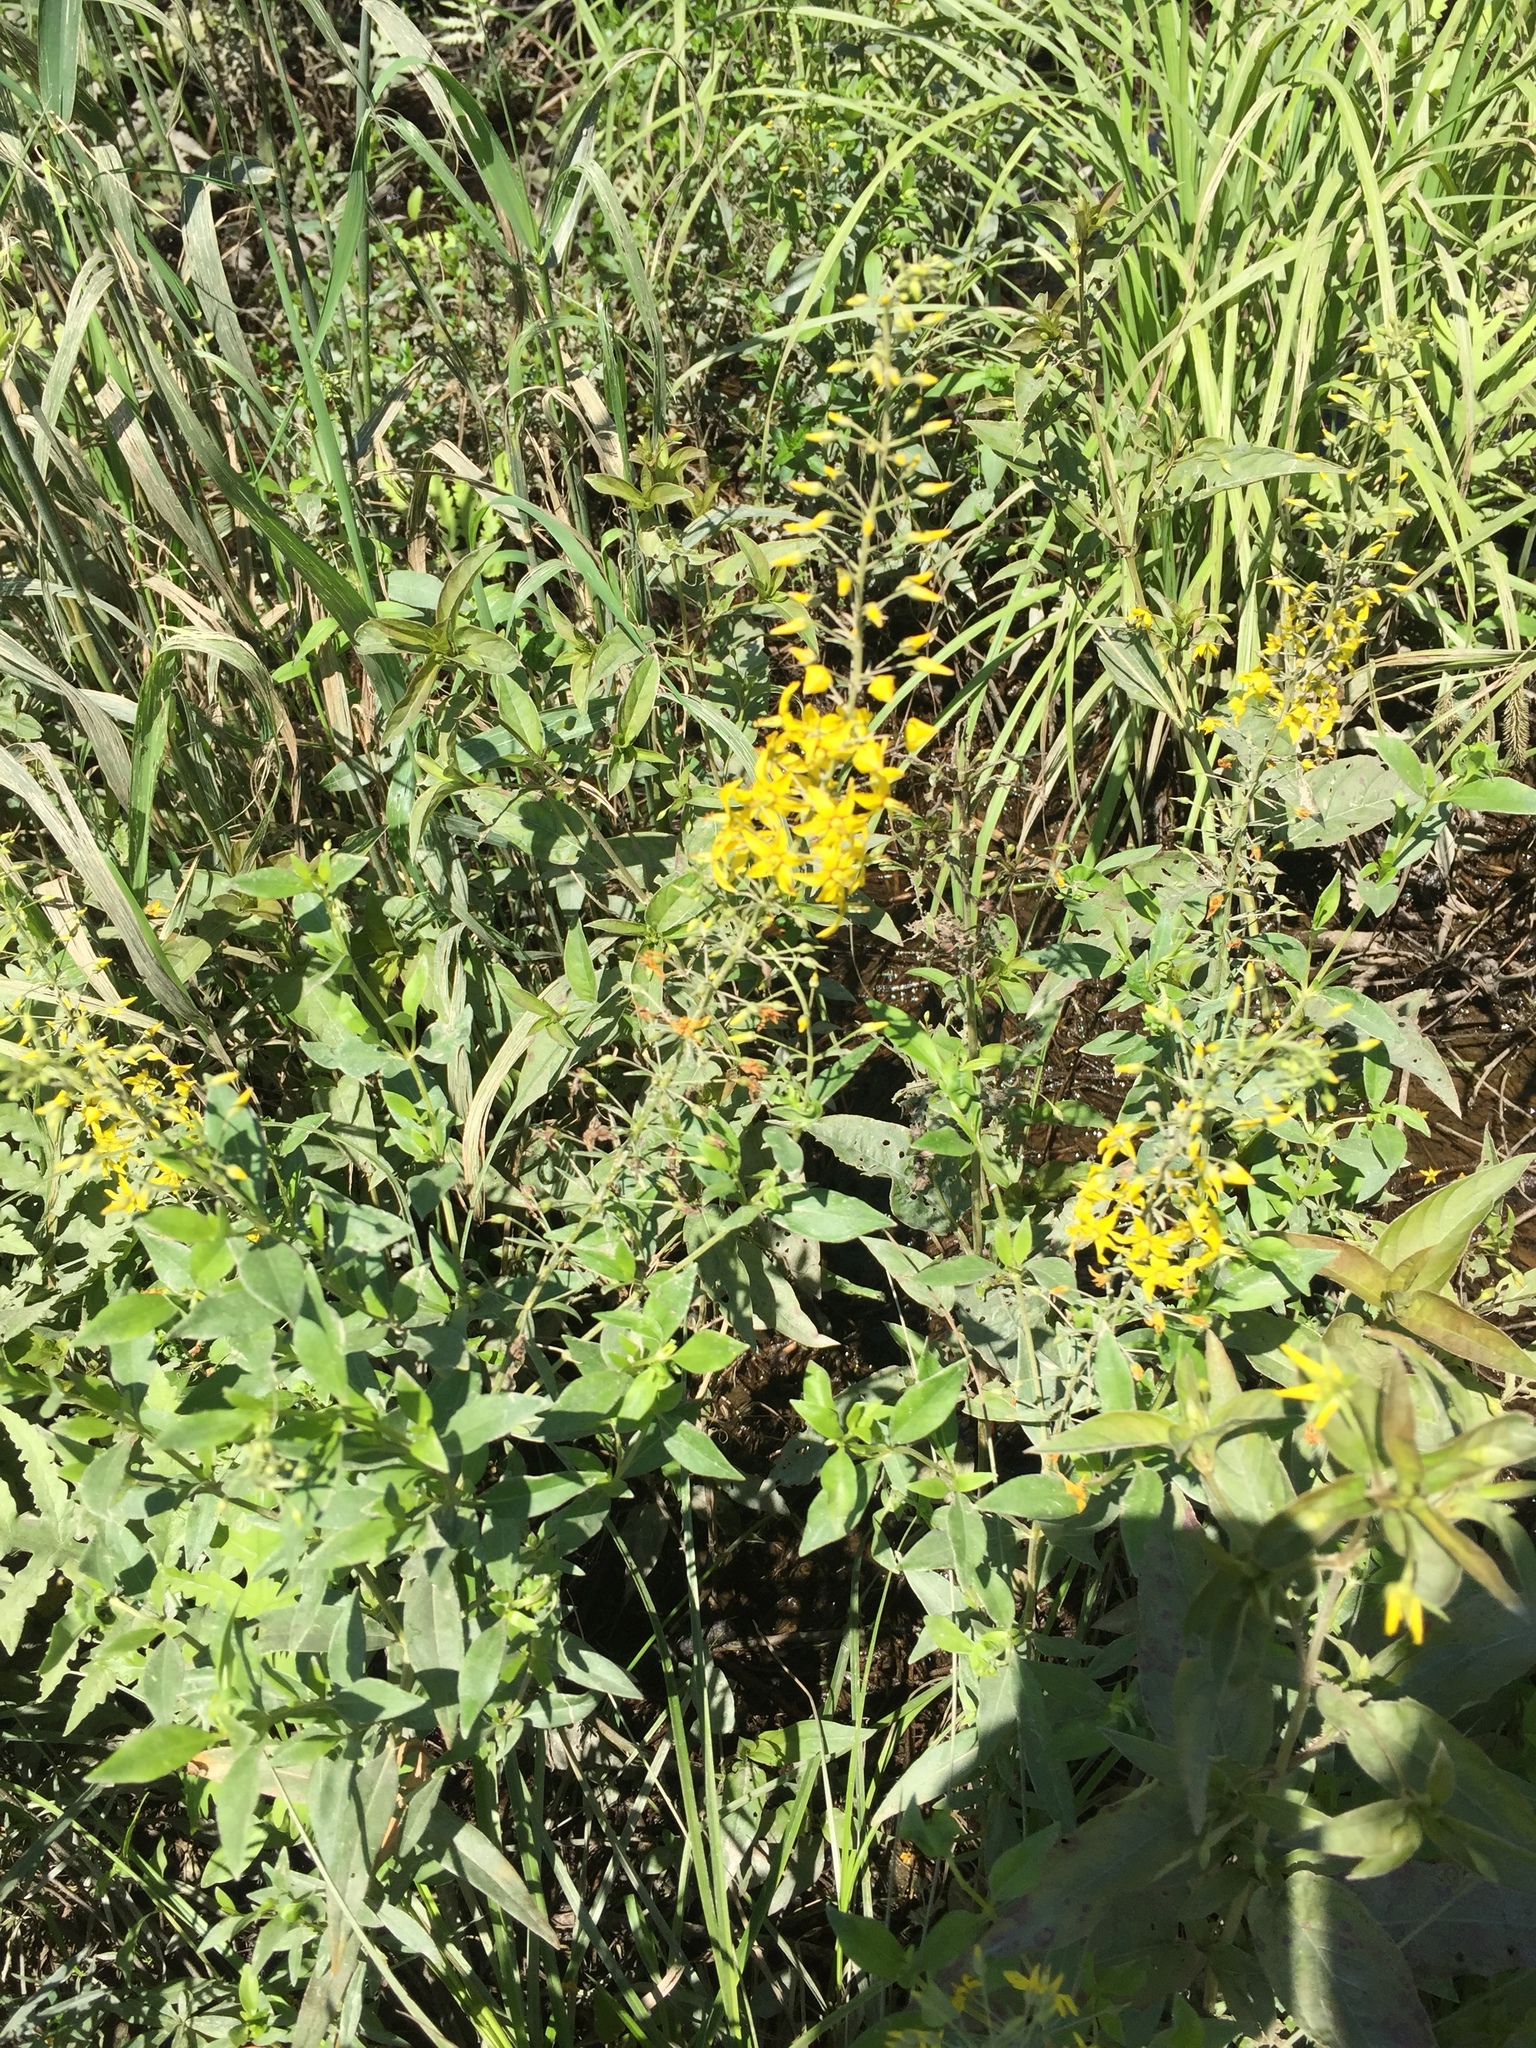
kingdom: Plantae
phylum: Tracheophyta
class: Magnoliopsida
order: Ericales
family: Primulaceae
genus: Lysimachia
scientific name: Lysimachia terrestris
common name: Lake loosestrife
